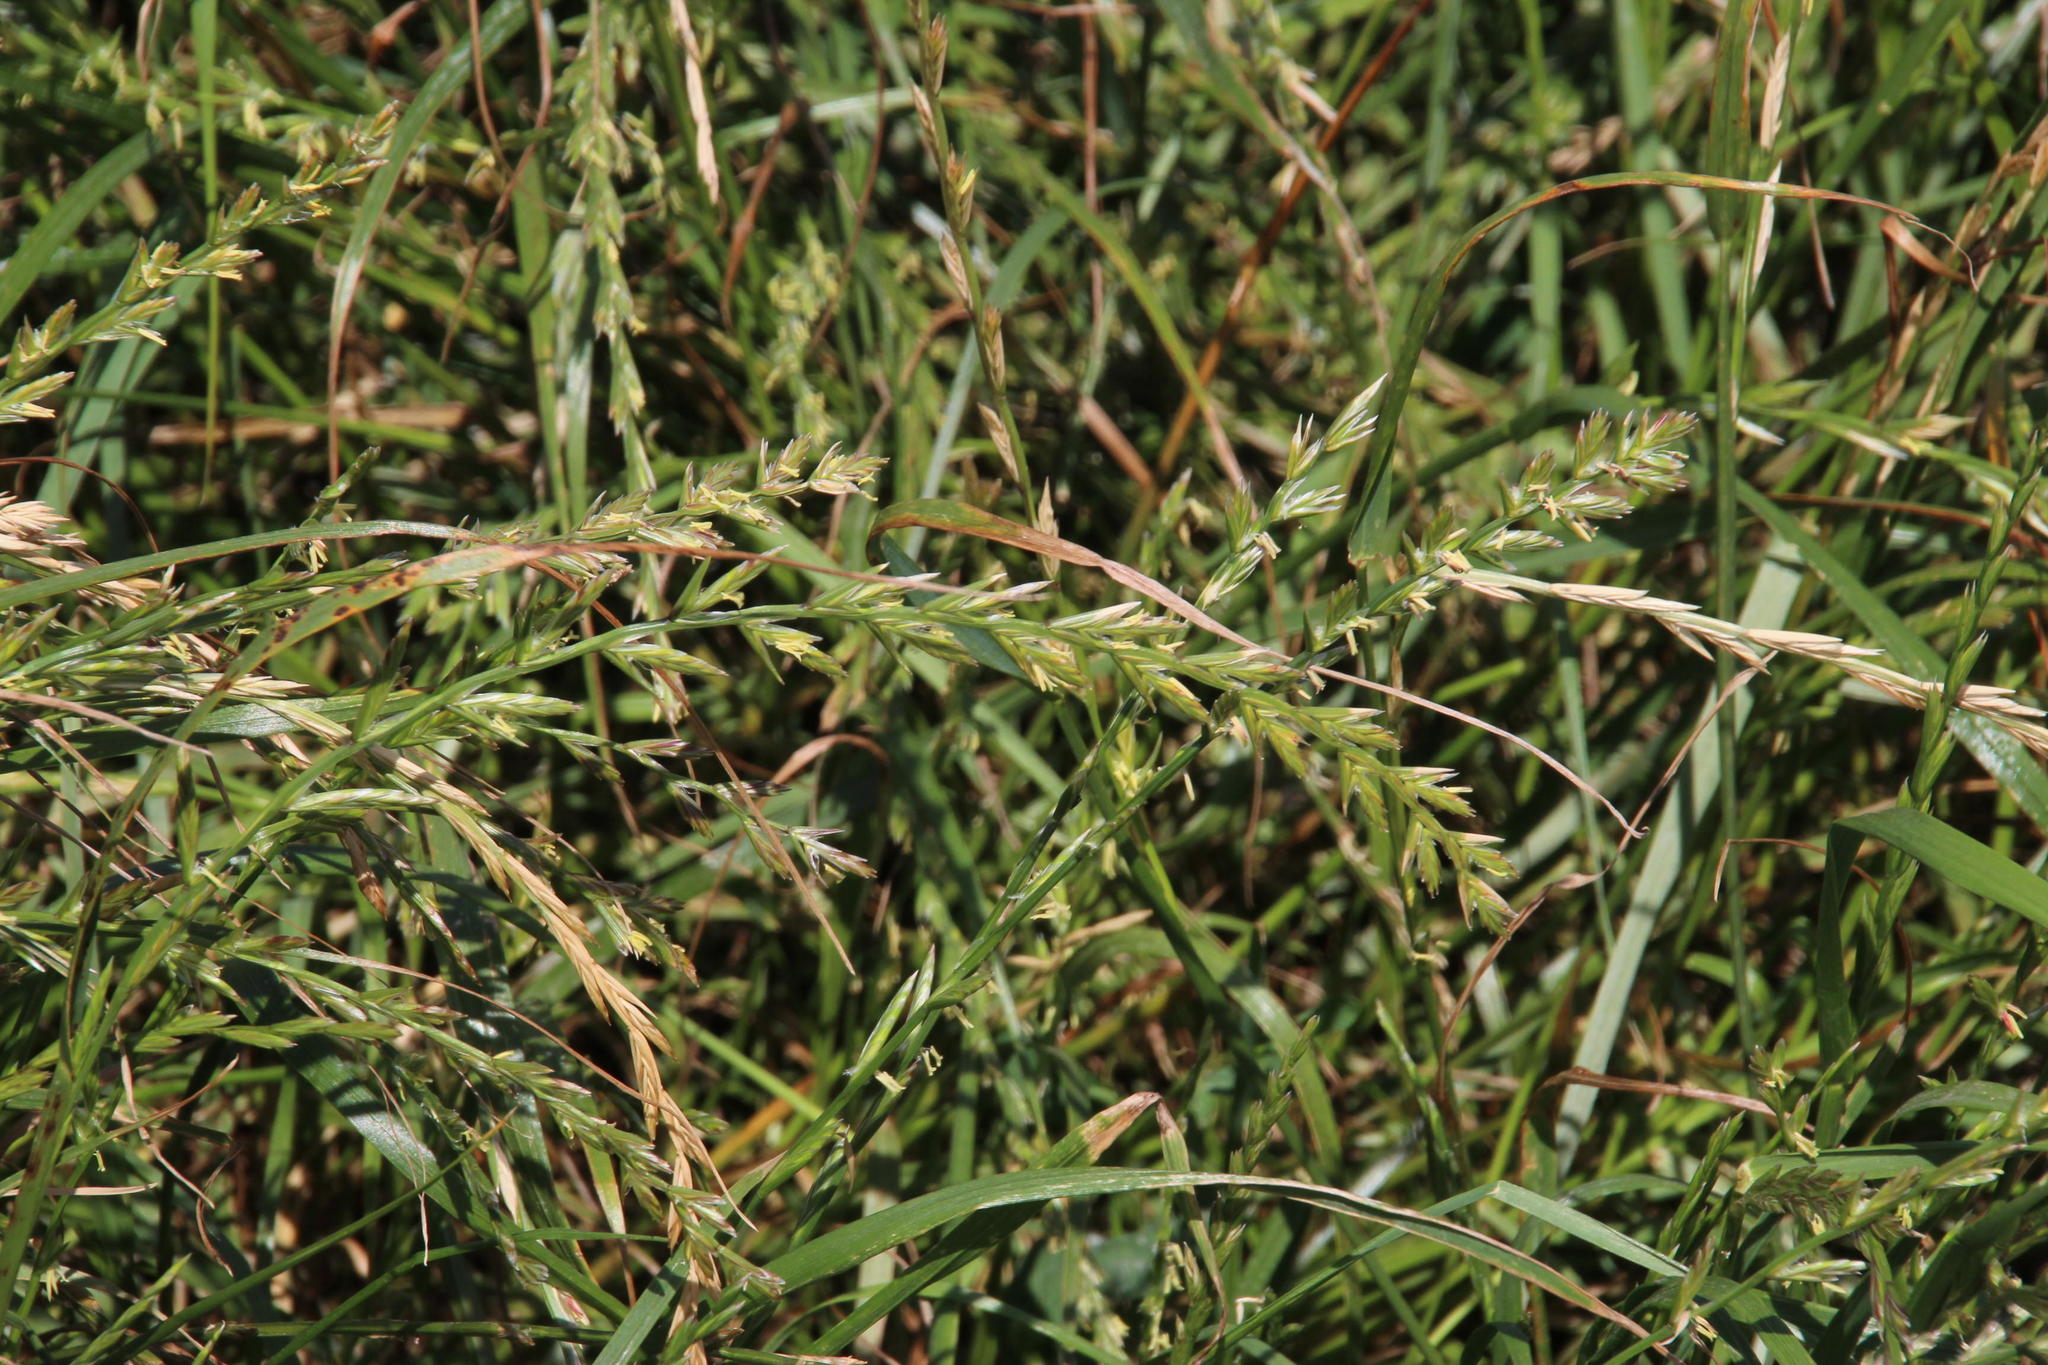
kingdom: Plantae
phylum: Tracheophyta
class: Liliopsida
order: Poales
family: Poaceae
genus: Lolium
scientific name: Lolium perenne
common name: Perennial ryegrass
